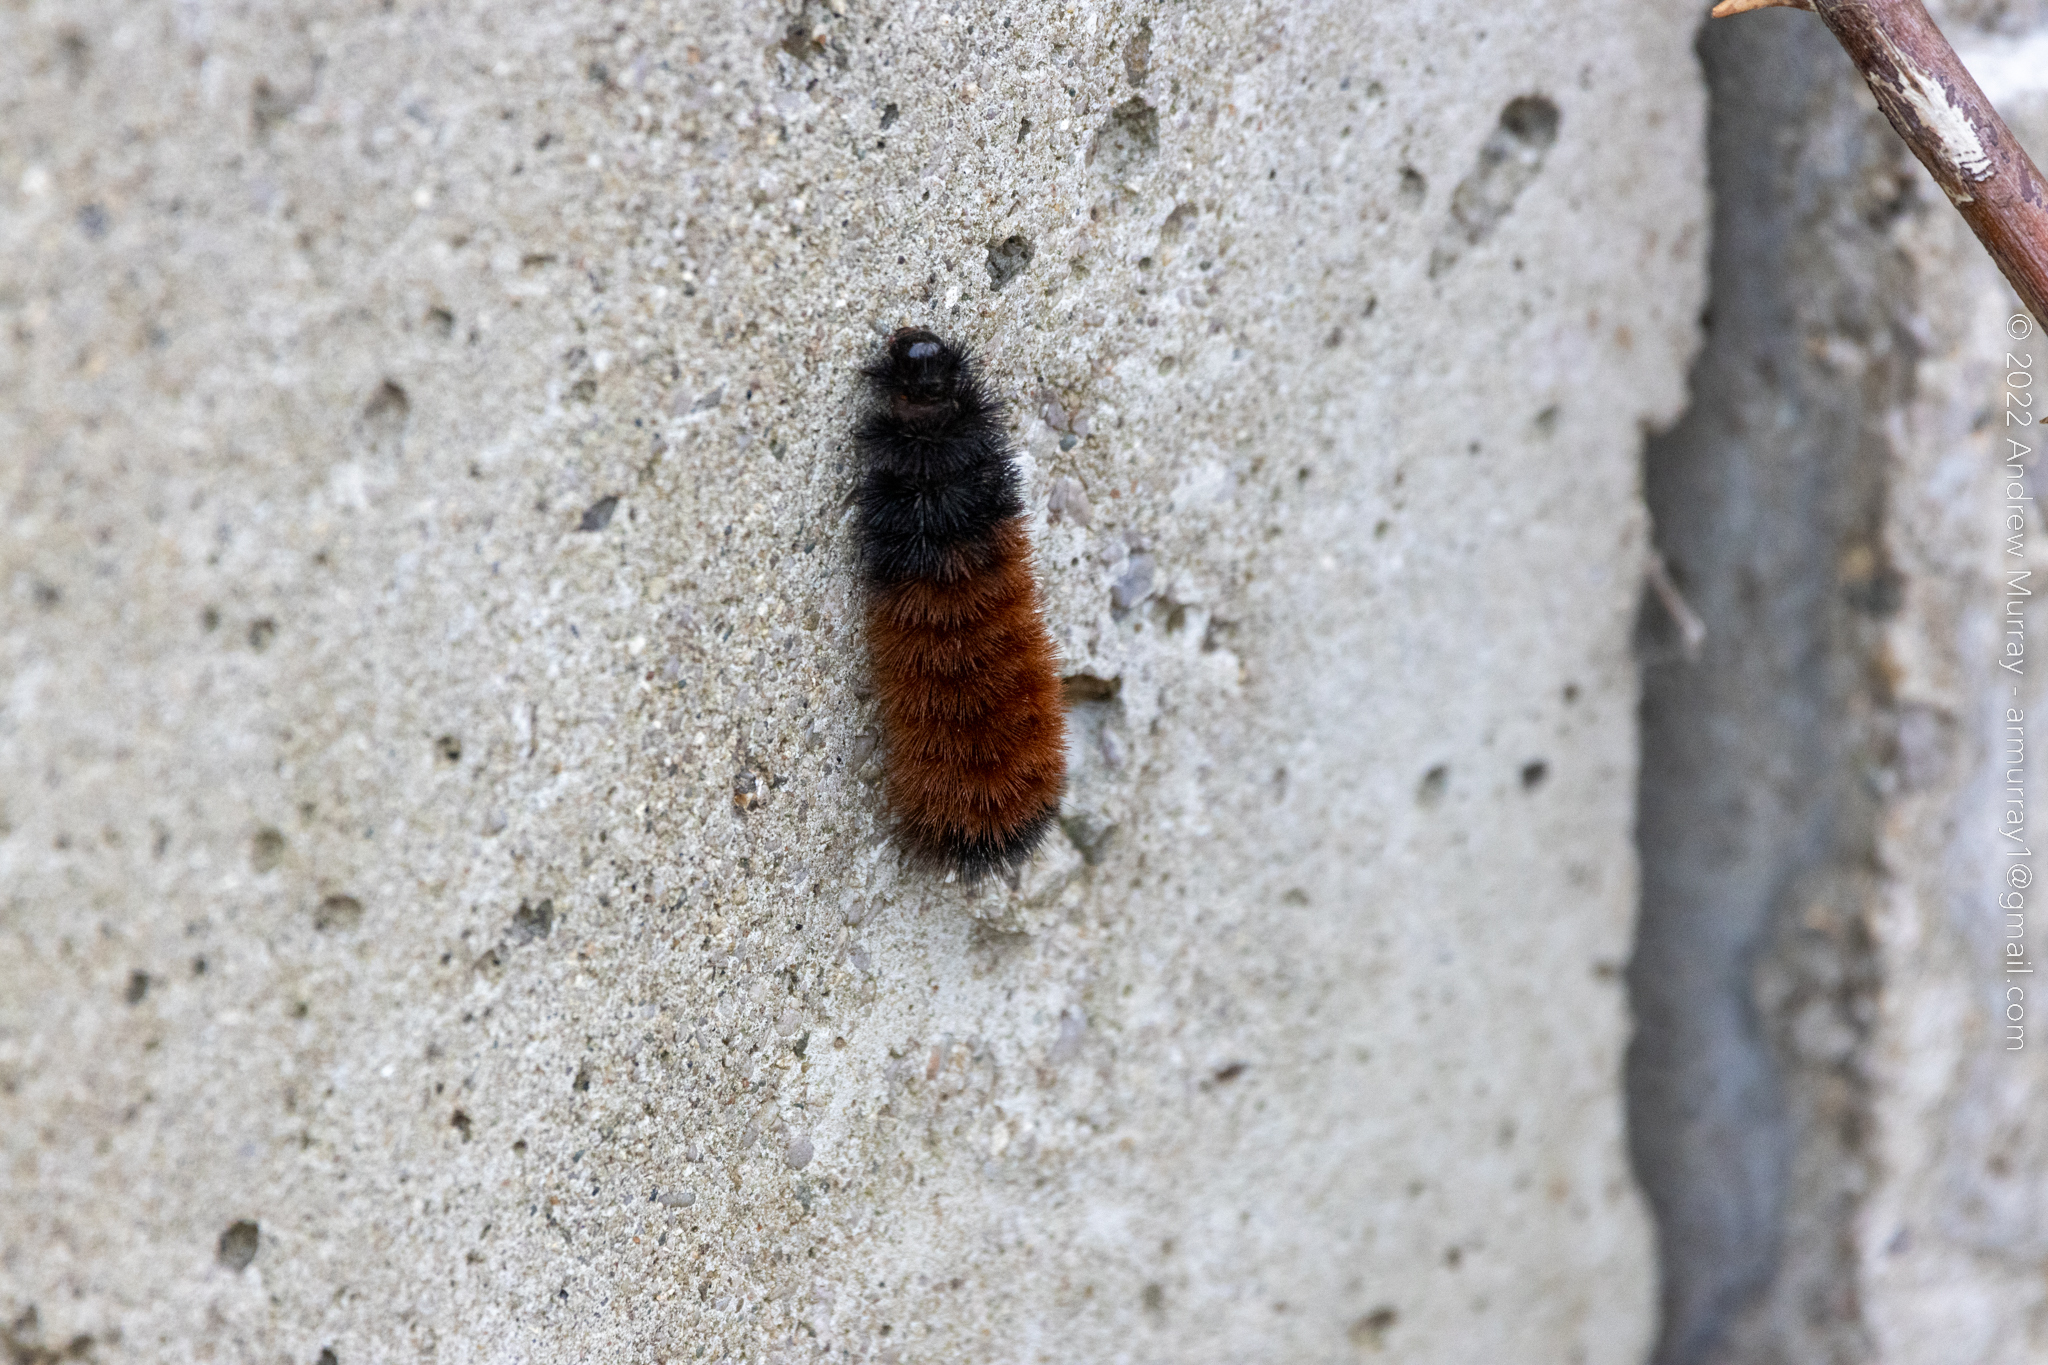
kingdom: Animalia
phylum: Arthropoda
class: Insecta
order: Lepidoptera
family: Erebidae
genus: Pyrrharctia
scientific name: Pyrrharctia isabella
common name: Isabella tiger moth
